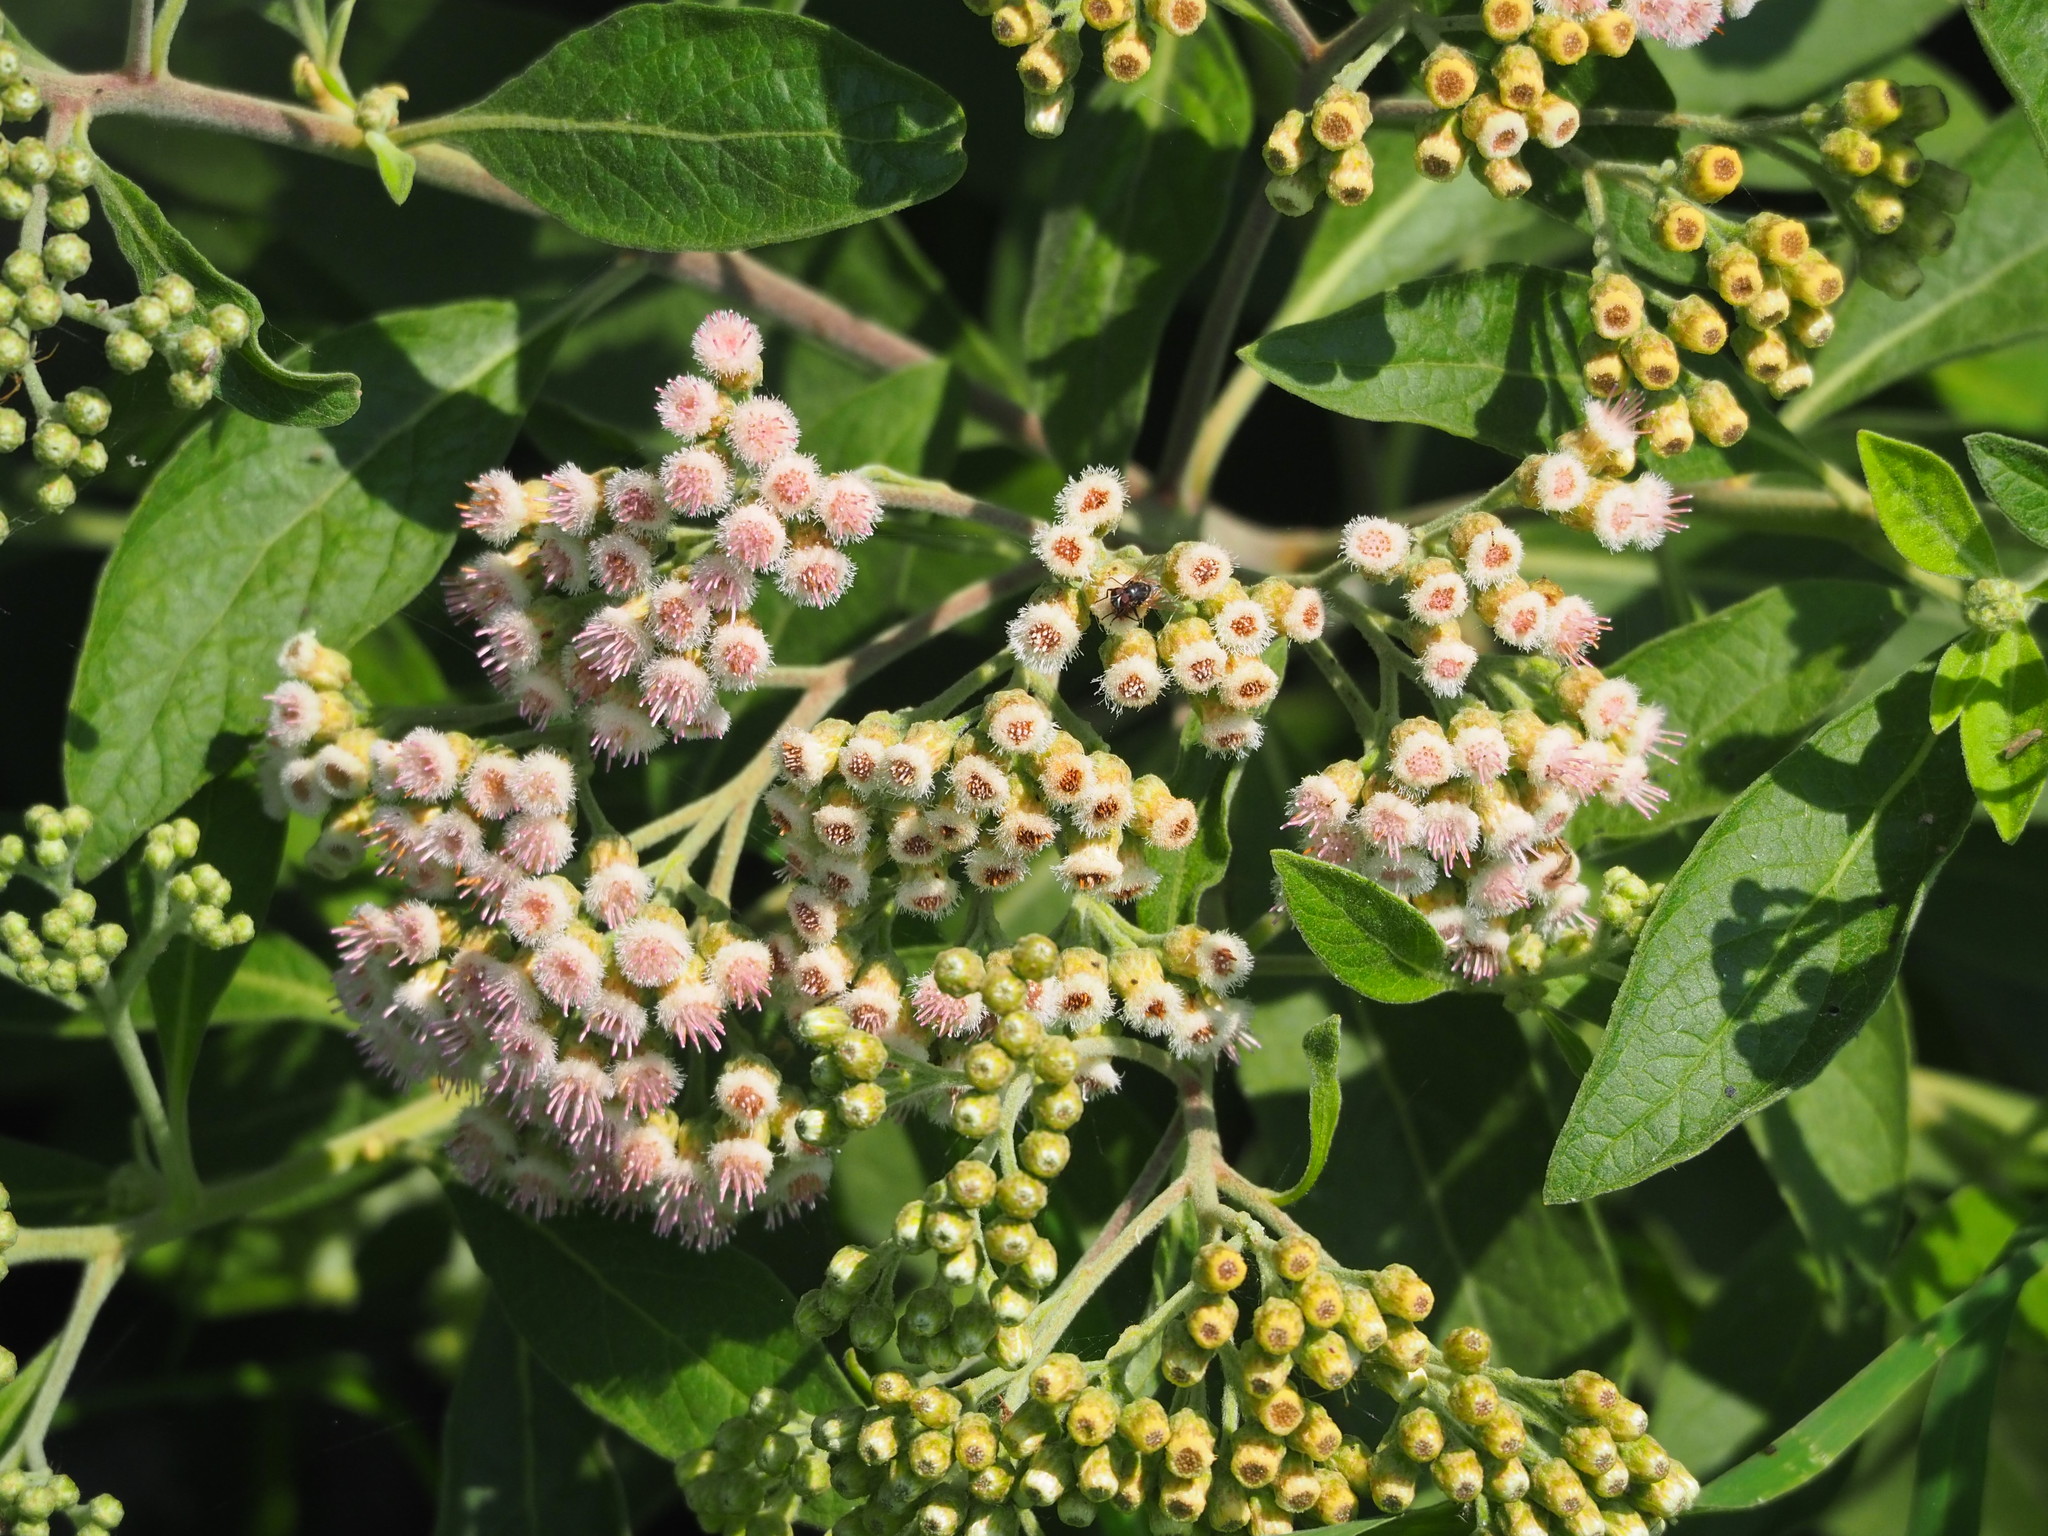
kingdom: Plantae
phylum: Tracheophyta
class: Magnoliopsida
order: Asterales
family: Asteraceae
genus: Pluchea
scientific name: Pluchea carolinensis
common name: Marsh fleabane
